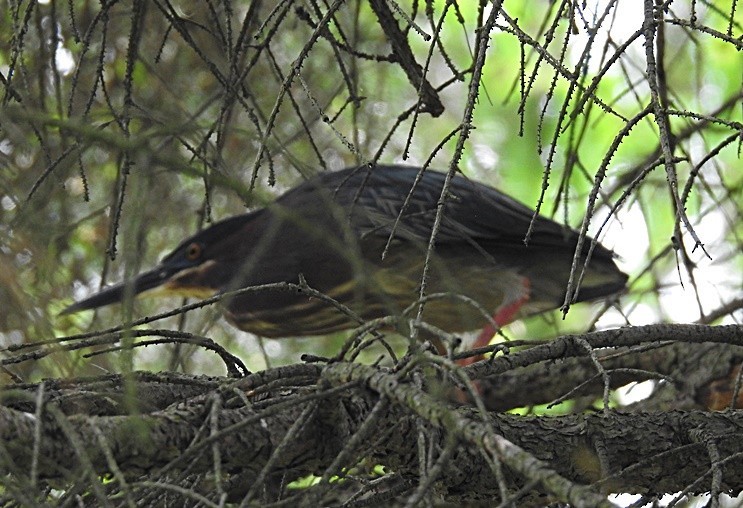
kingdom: Animalia
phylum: Chordata
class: Aves
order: Pelecaniformes
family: Ardeidae
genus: Butorides
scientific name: Butorides virescens
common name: Green heron
